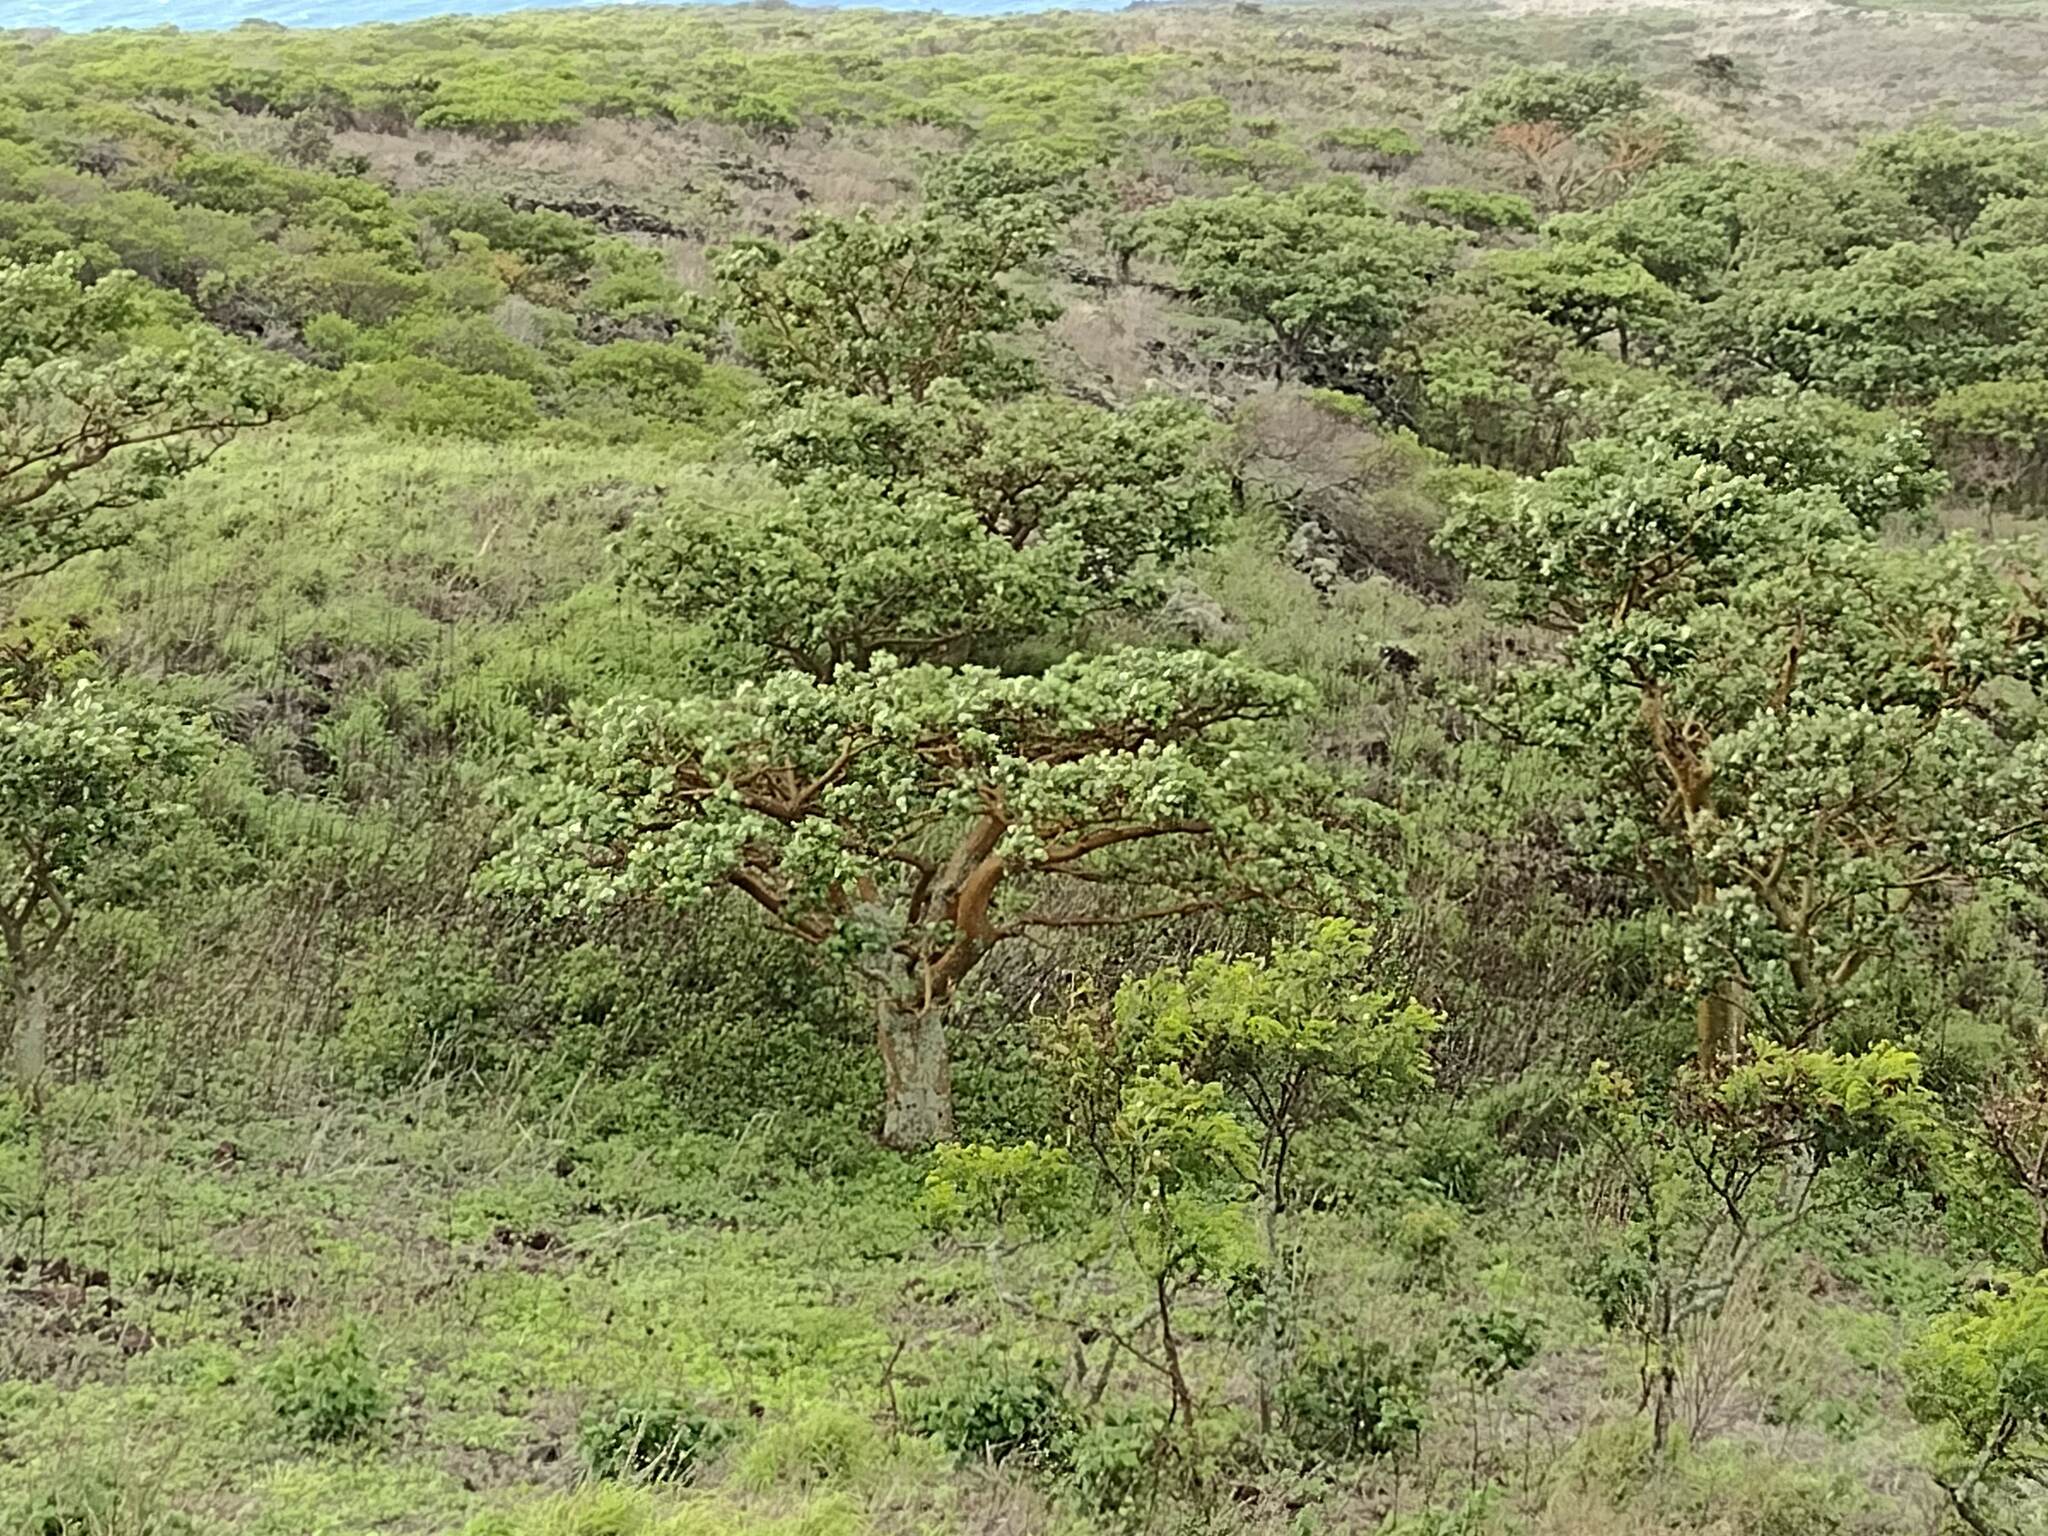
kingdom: Plantae
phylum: Tracheophyta
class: Magnoliopsida
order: Fabales
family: Fabaceae
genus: Erythrina
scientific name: Erythrina sandwicensis
